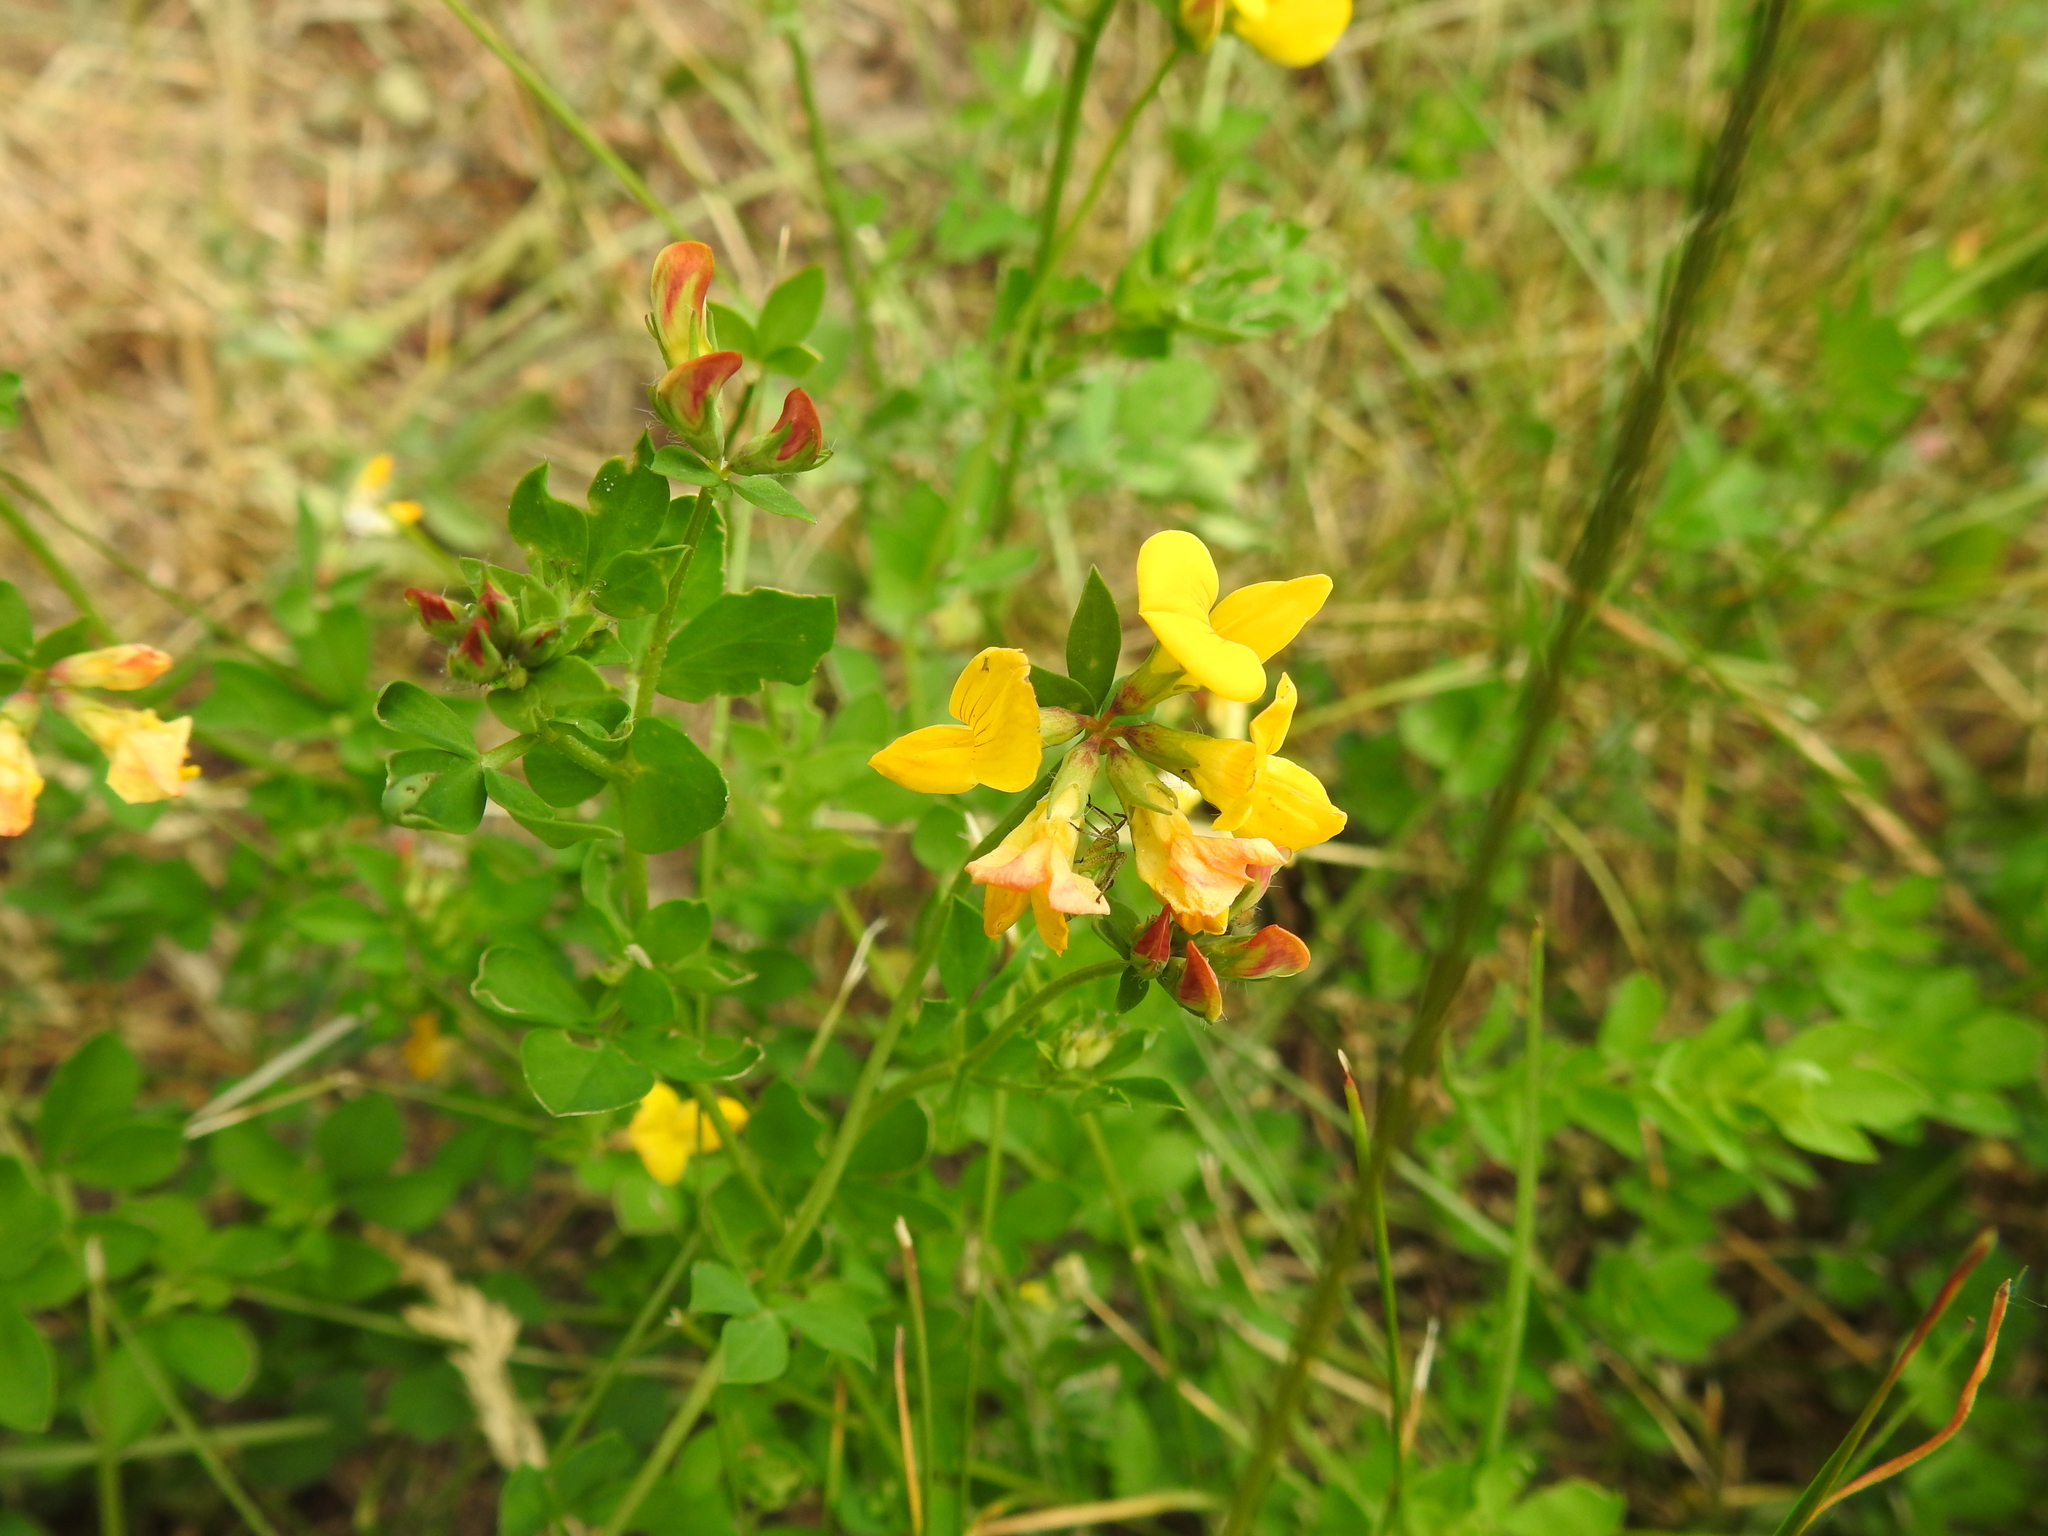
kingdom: Plantae
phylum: Tracheophyta
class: Magnoliopsida
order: Fabales
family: Fabaceae
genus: Lotus
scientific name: Lotus corniculatus
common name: Common bird's-foot-trefoil
